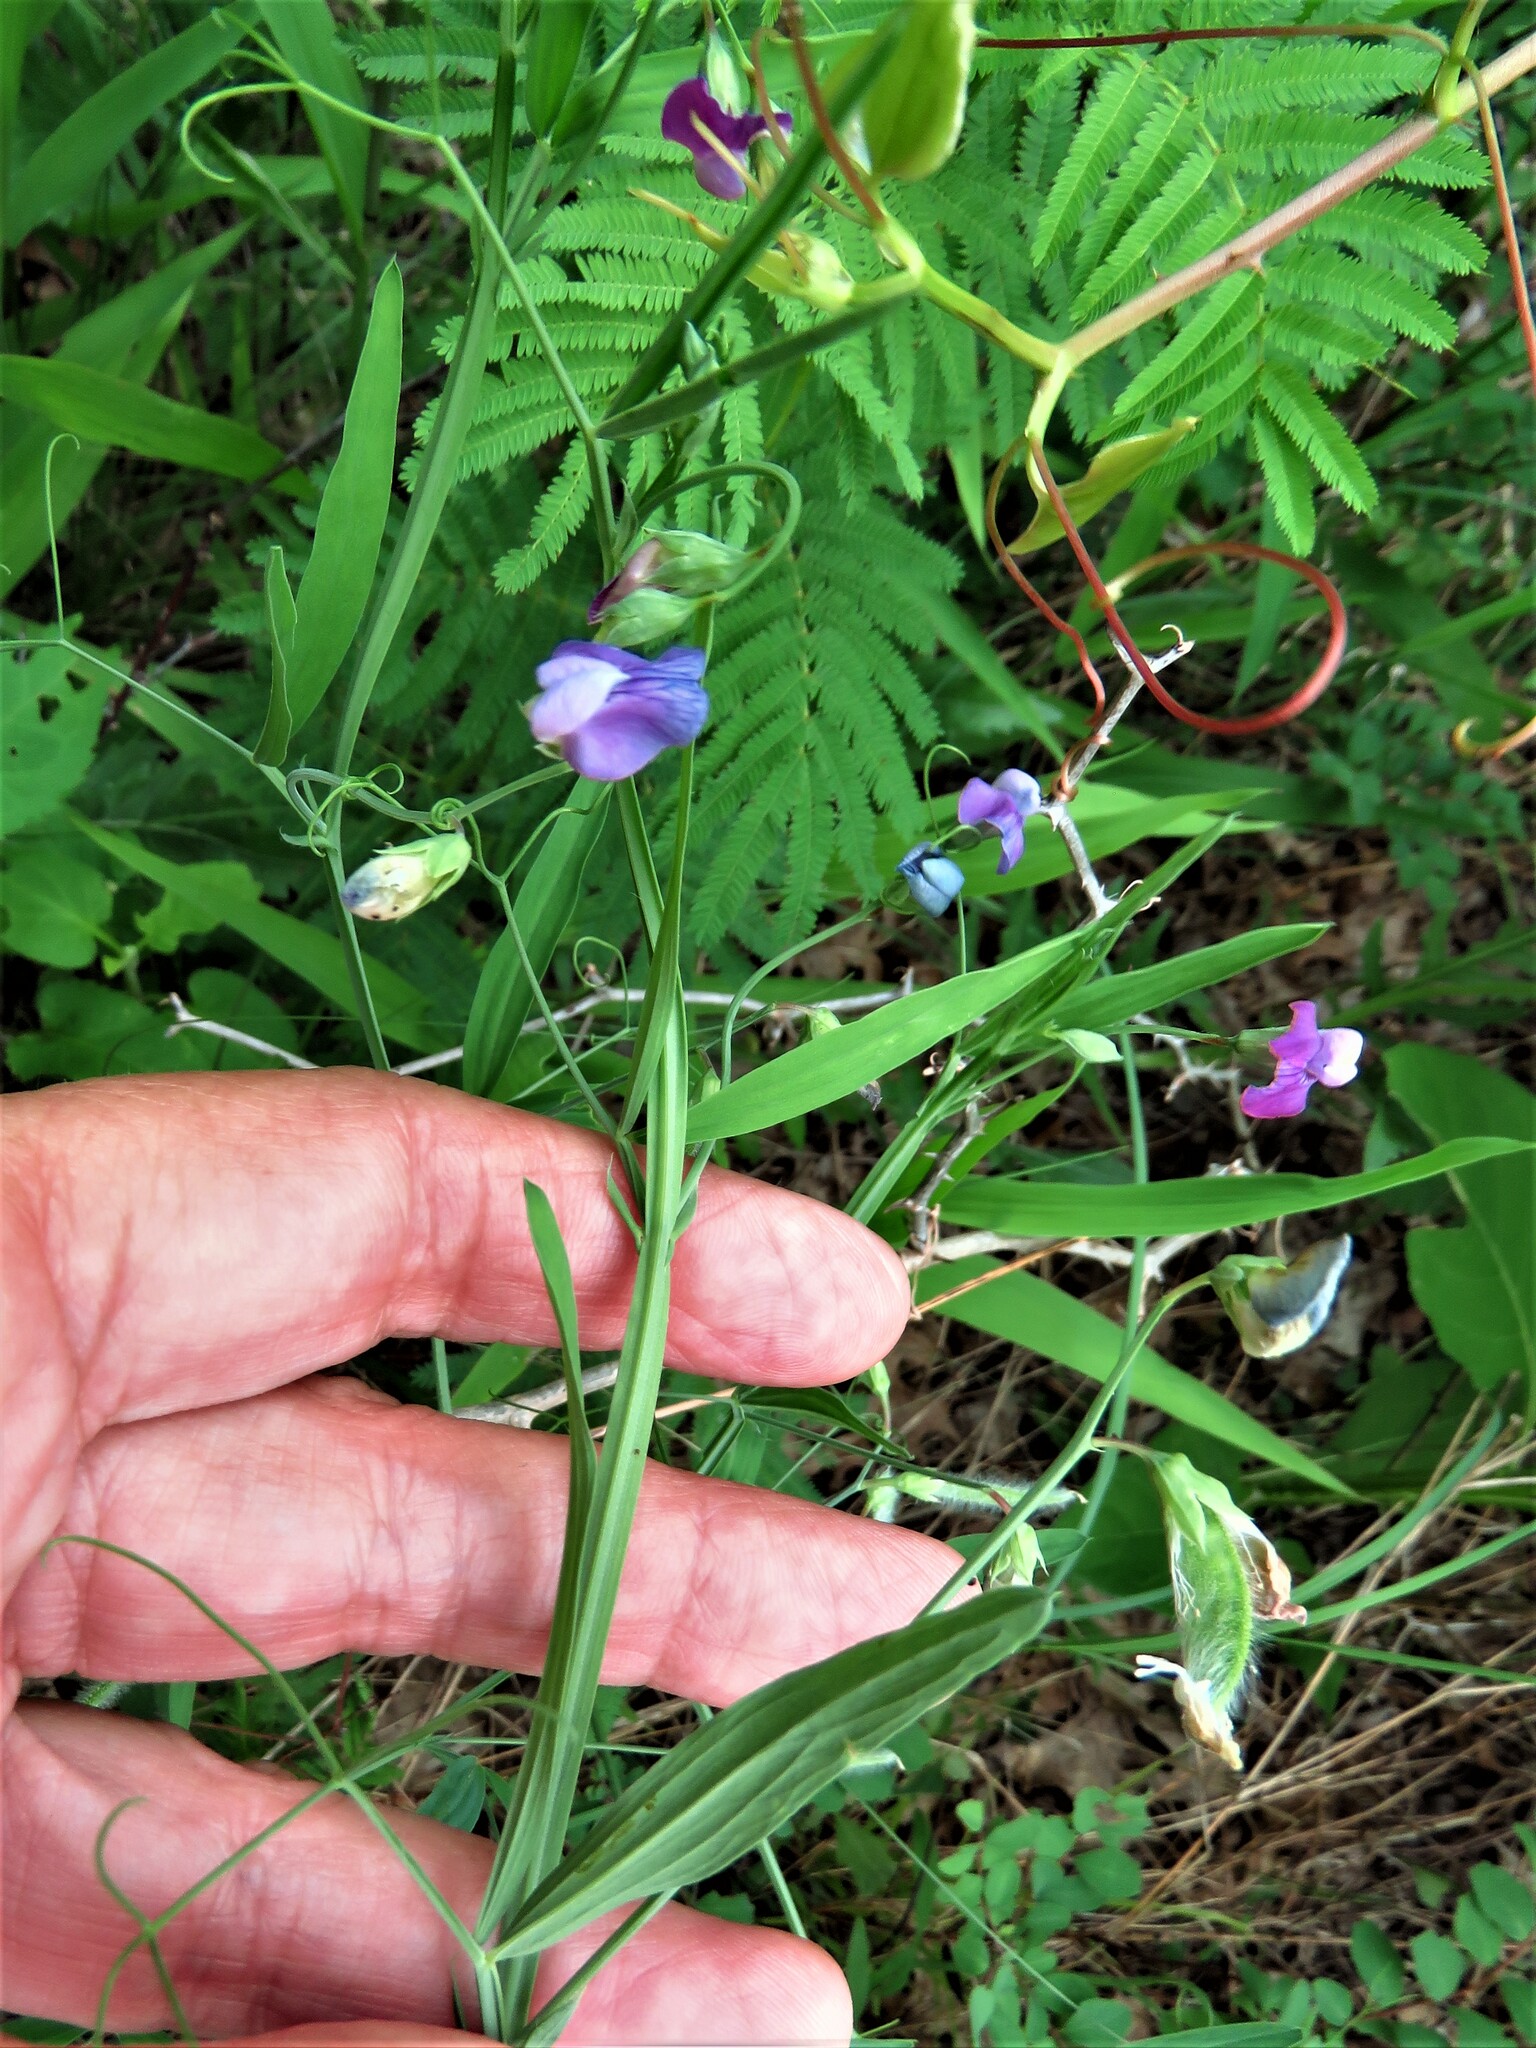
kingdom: Plantae
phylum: Tracheophyta
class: Magnoliopsida
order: Fabales
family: Fabaceae
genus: Lathyrus
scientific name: Lathyrus hirsutus
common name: Hairy vetchling
